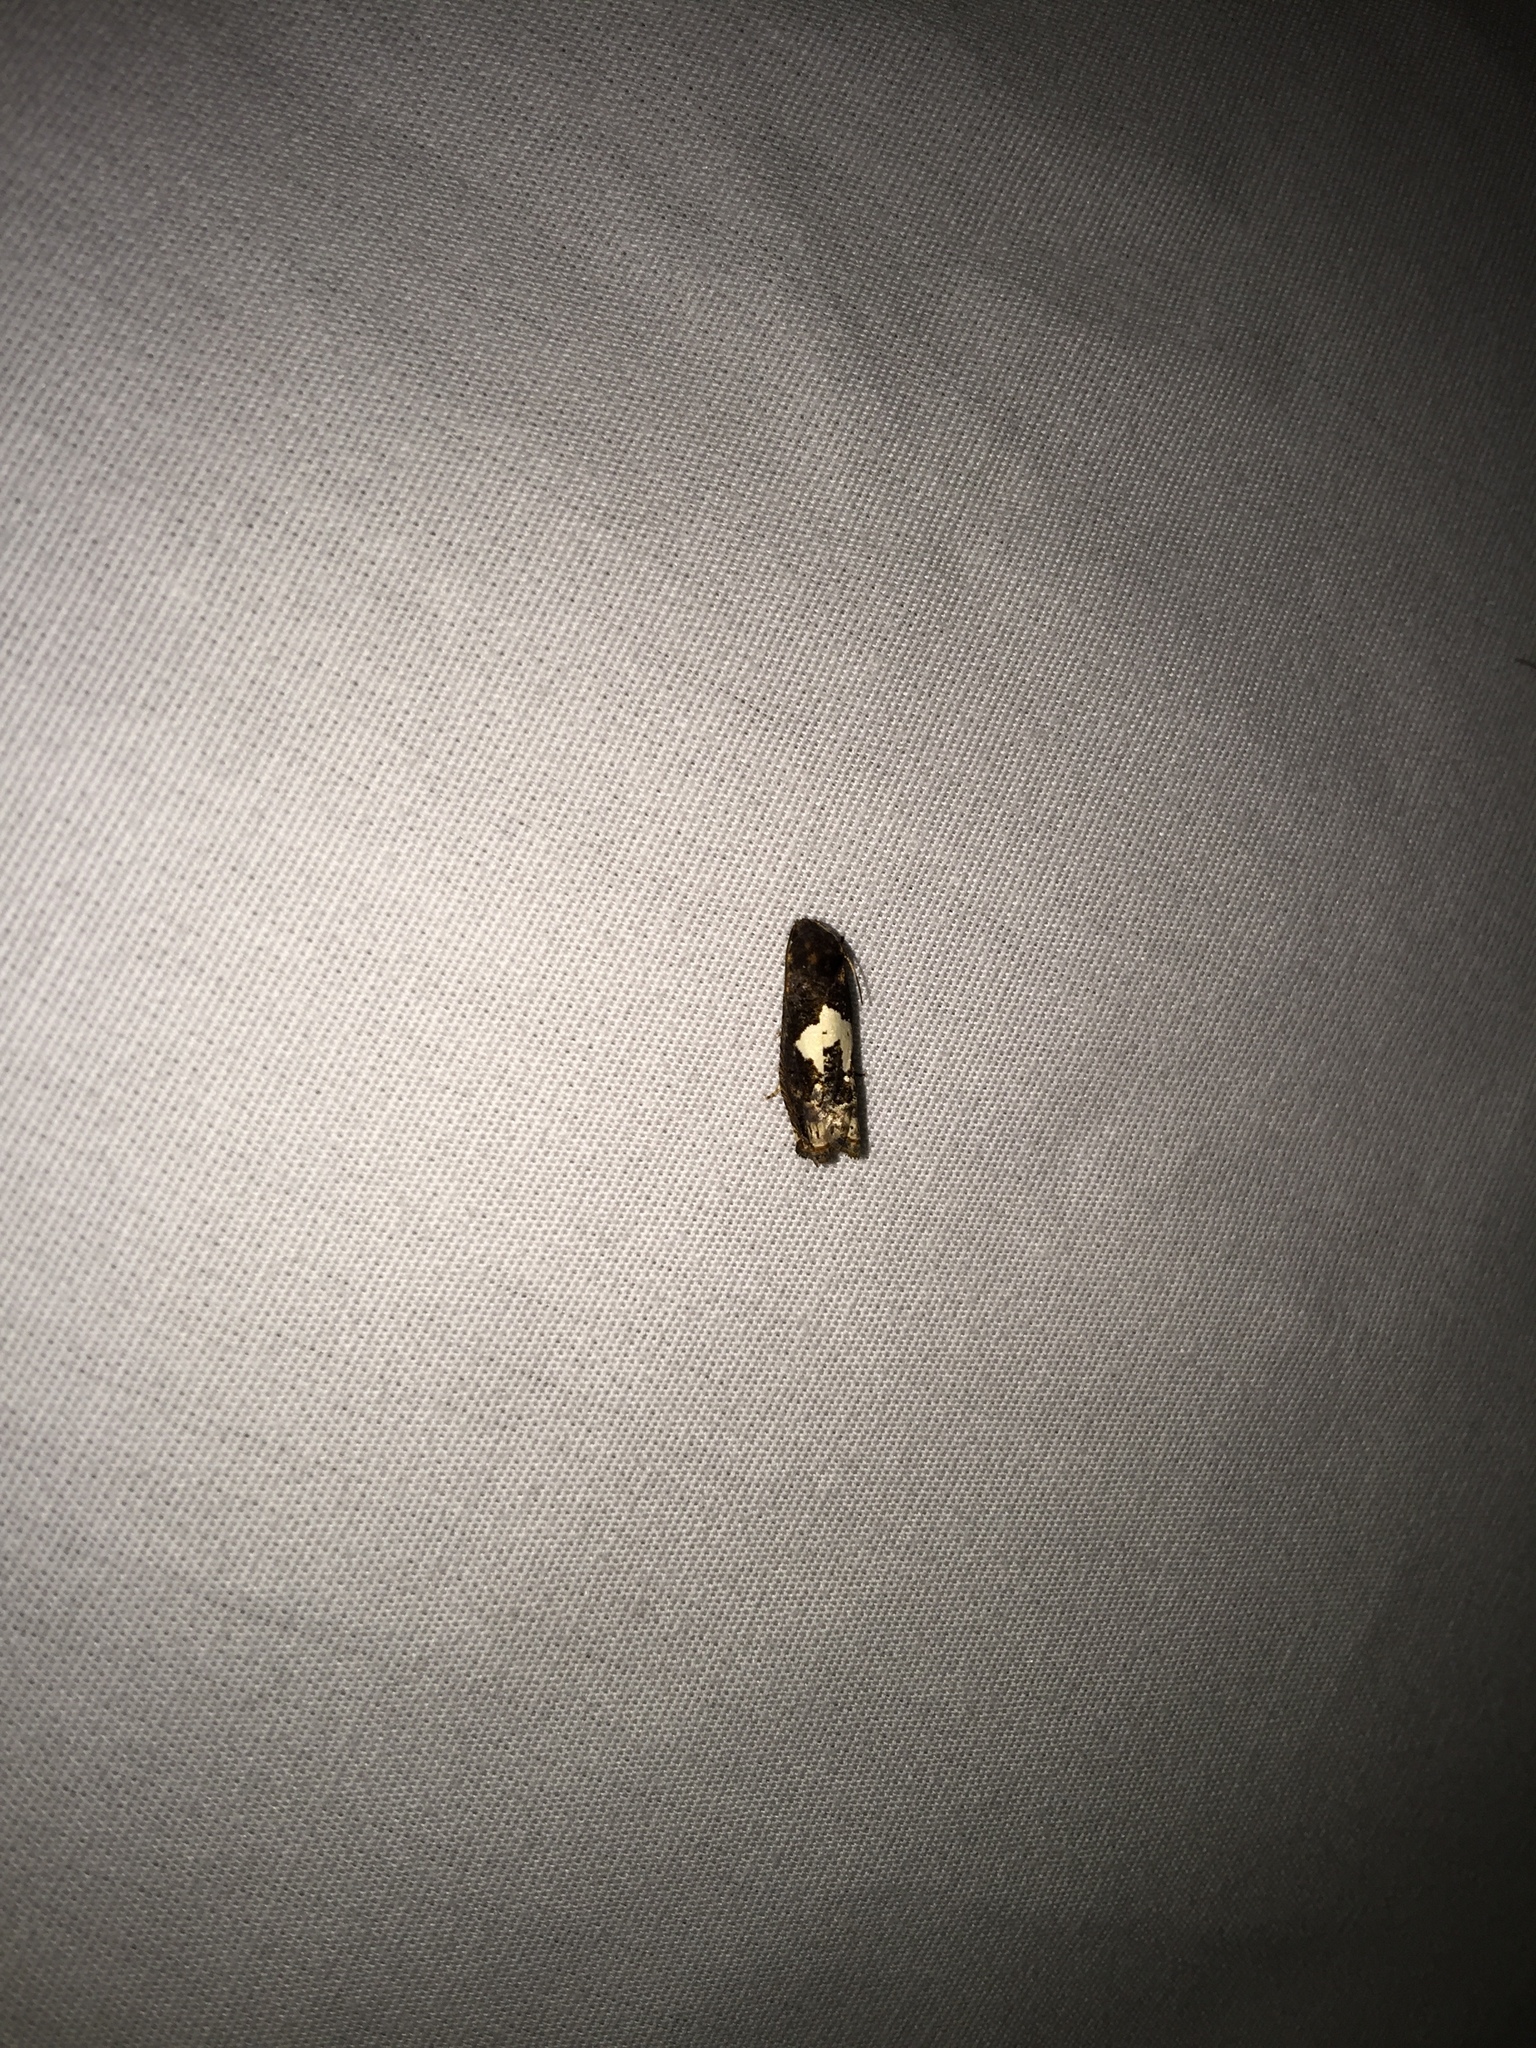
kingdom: Animalia
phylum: Arthropoda
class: Insecta
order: Lepidoptera
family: Tortricidae
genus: Epiblema
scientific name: Epiblema otiosana
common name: Bidens borer moth
